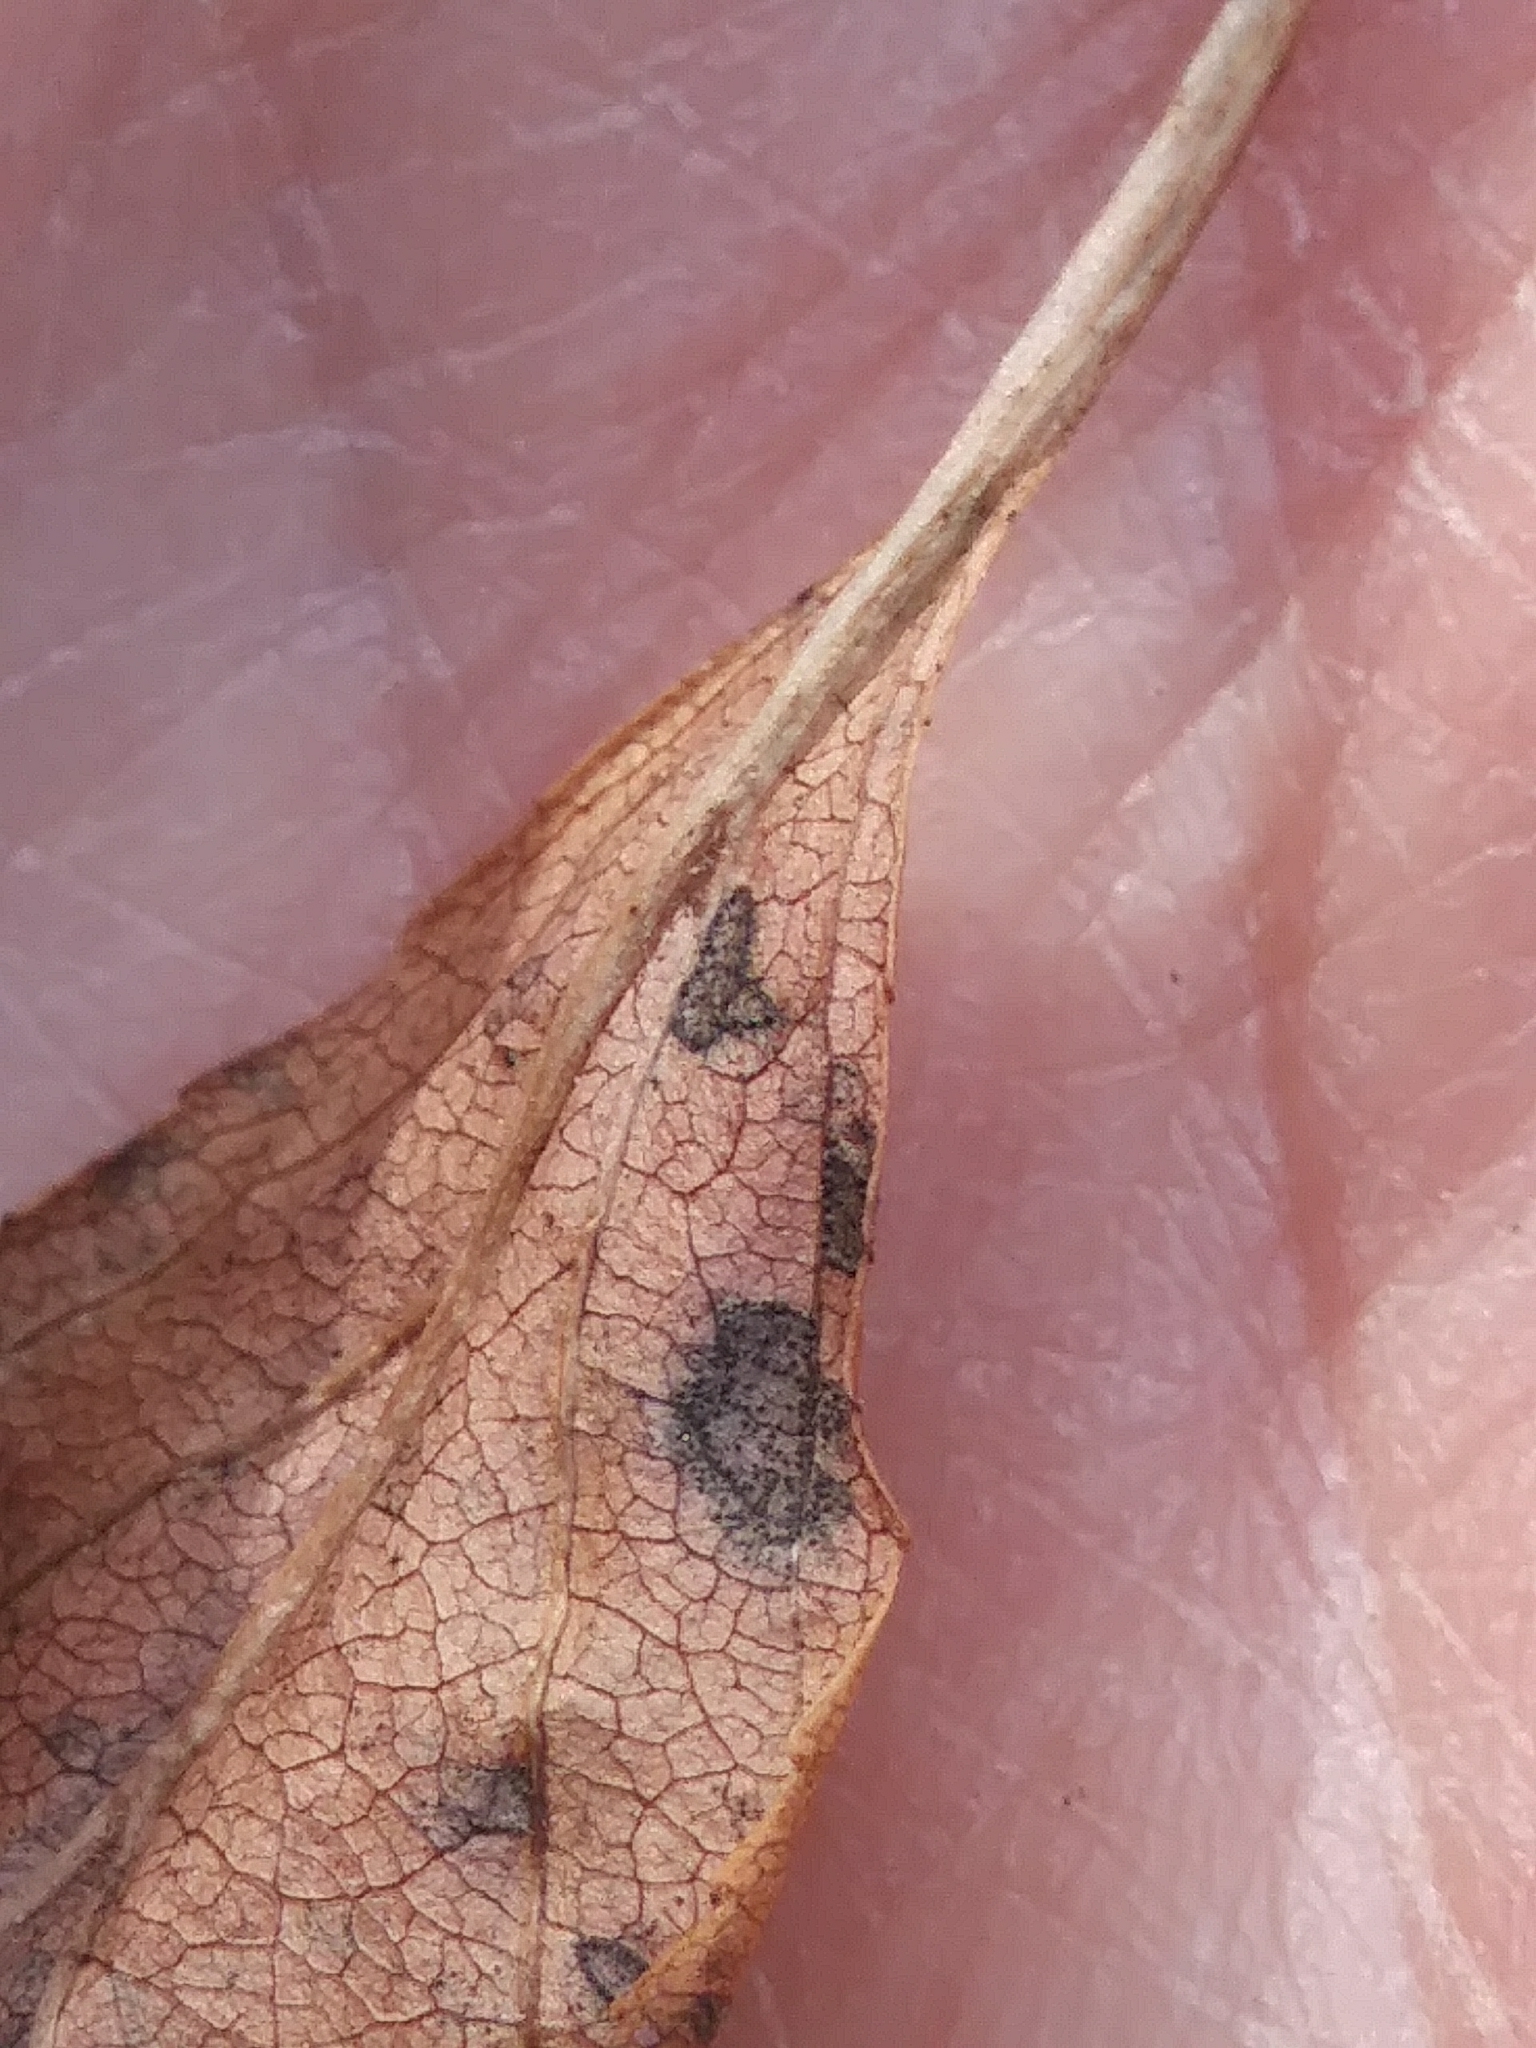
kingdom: Plantae
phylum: Tracheophyta
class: Magnoliopsida
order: Rosales
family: Rhamnaceae
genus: Rhamnus
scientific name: Rhamnus cathartica
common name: Common buckthorn
